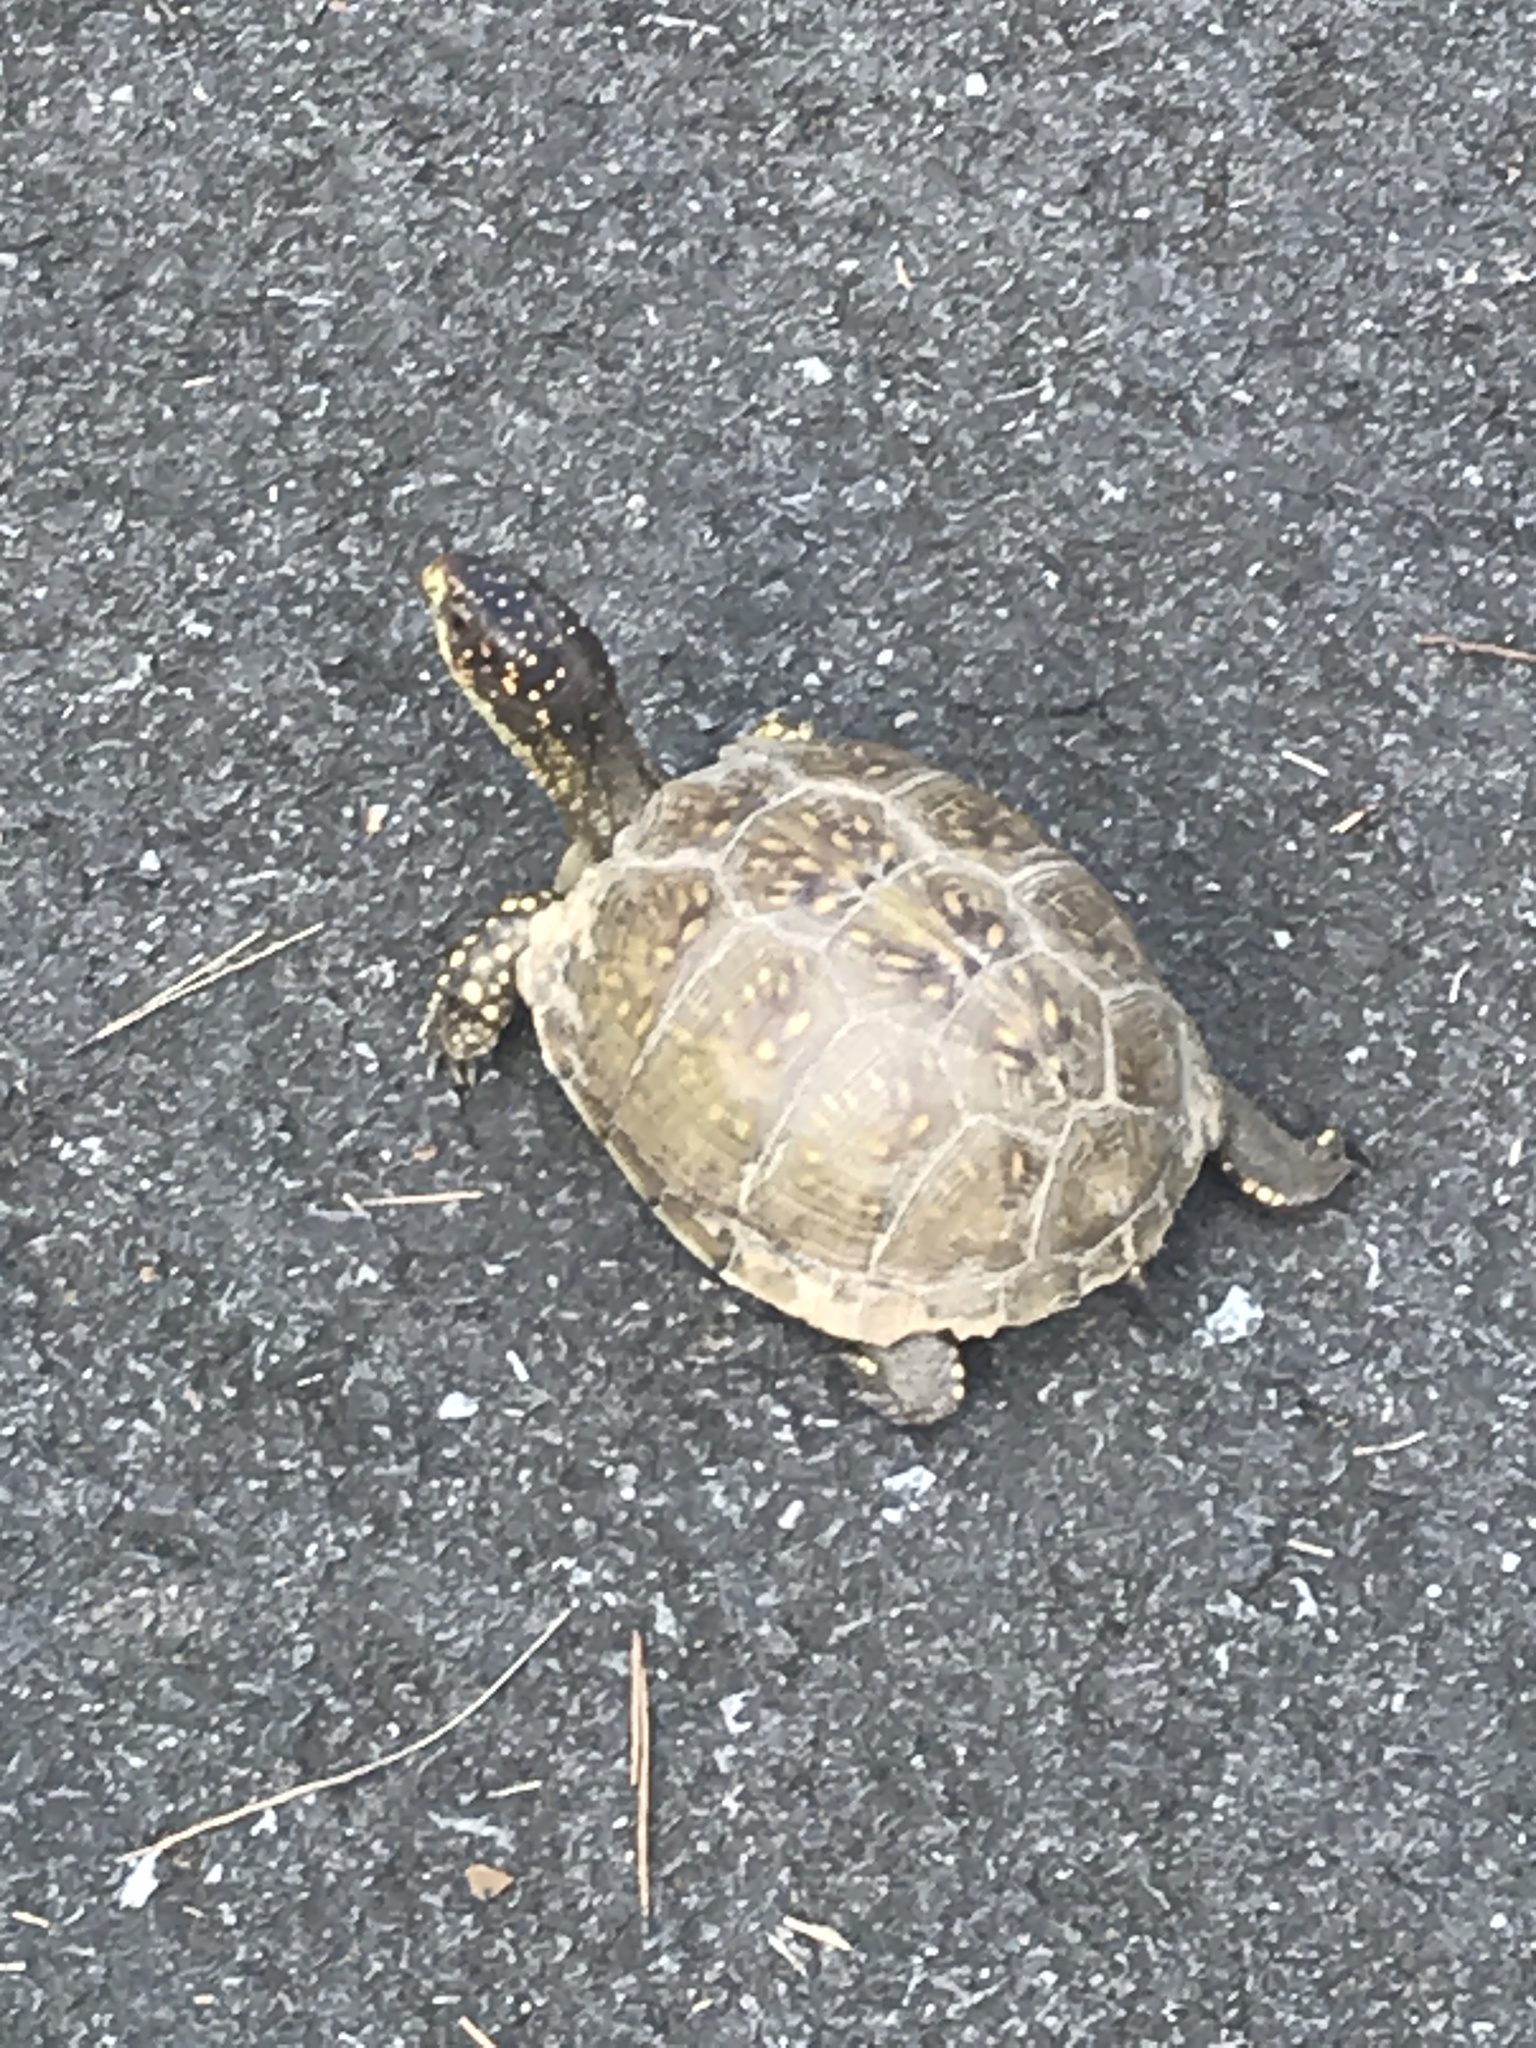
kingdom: Animalia
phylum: Chordata
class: Testudines
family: Emydidae
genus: Terrapene
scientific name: Terrapene carolina
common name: Common box turtle
